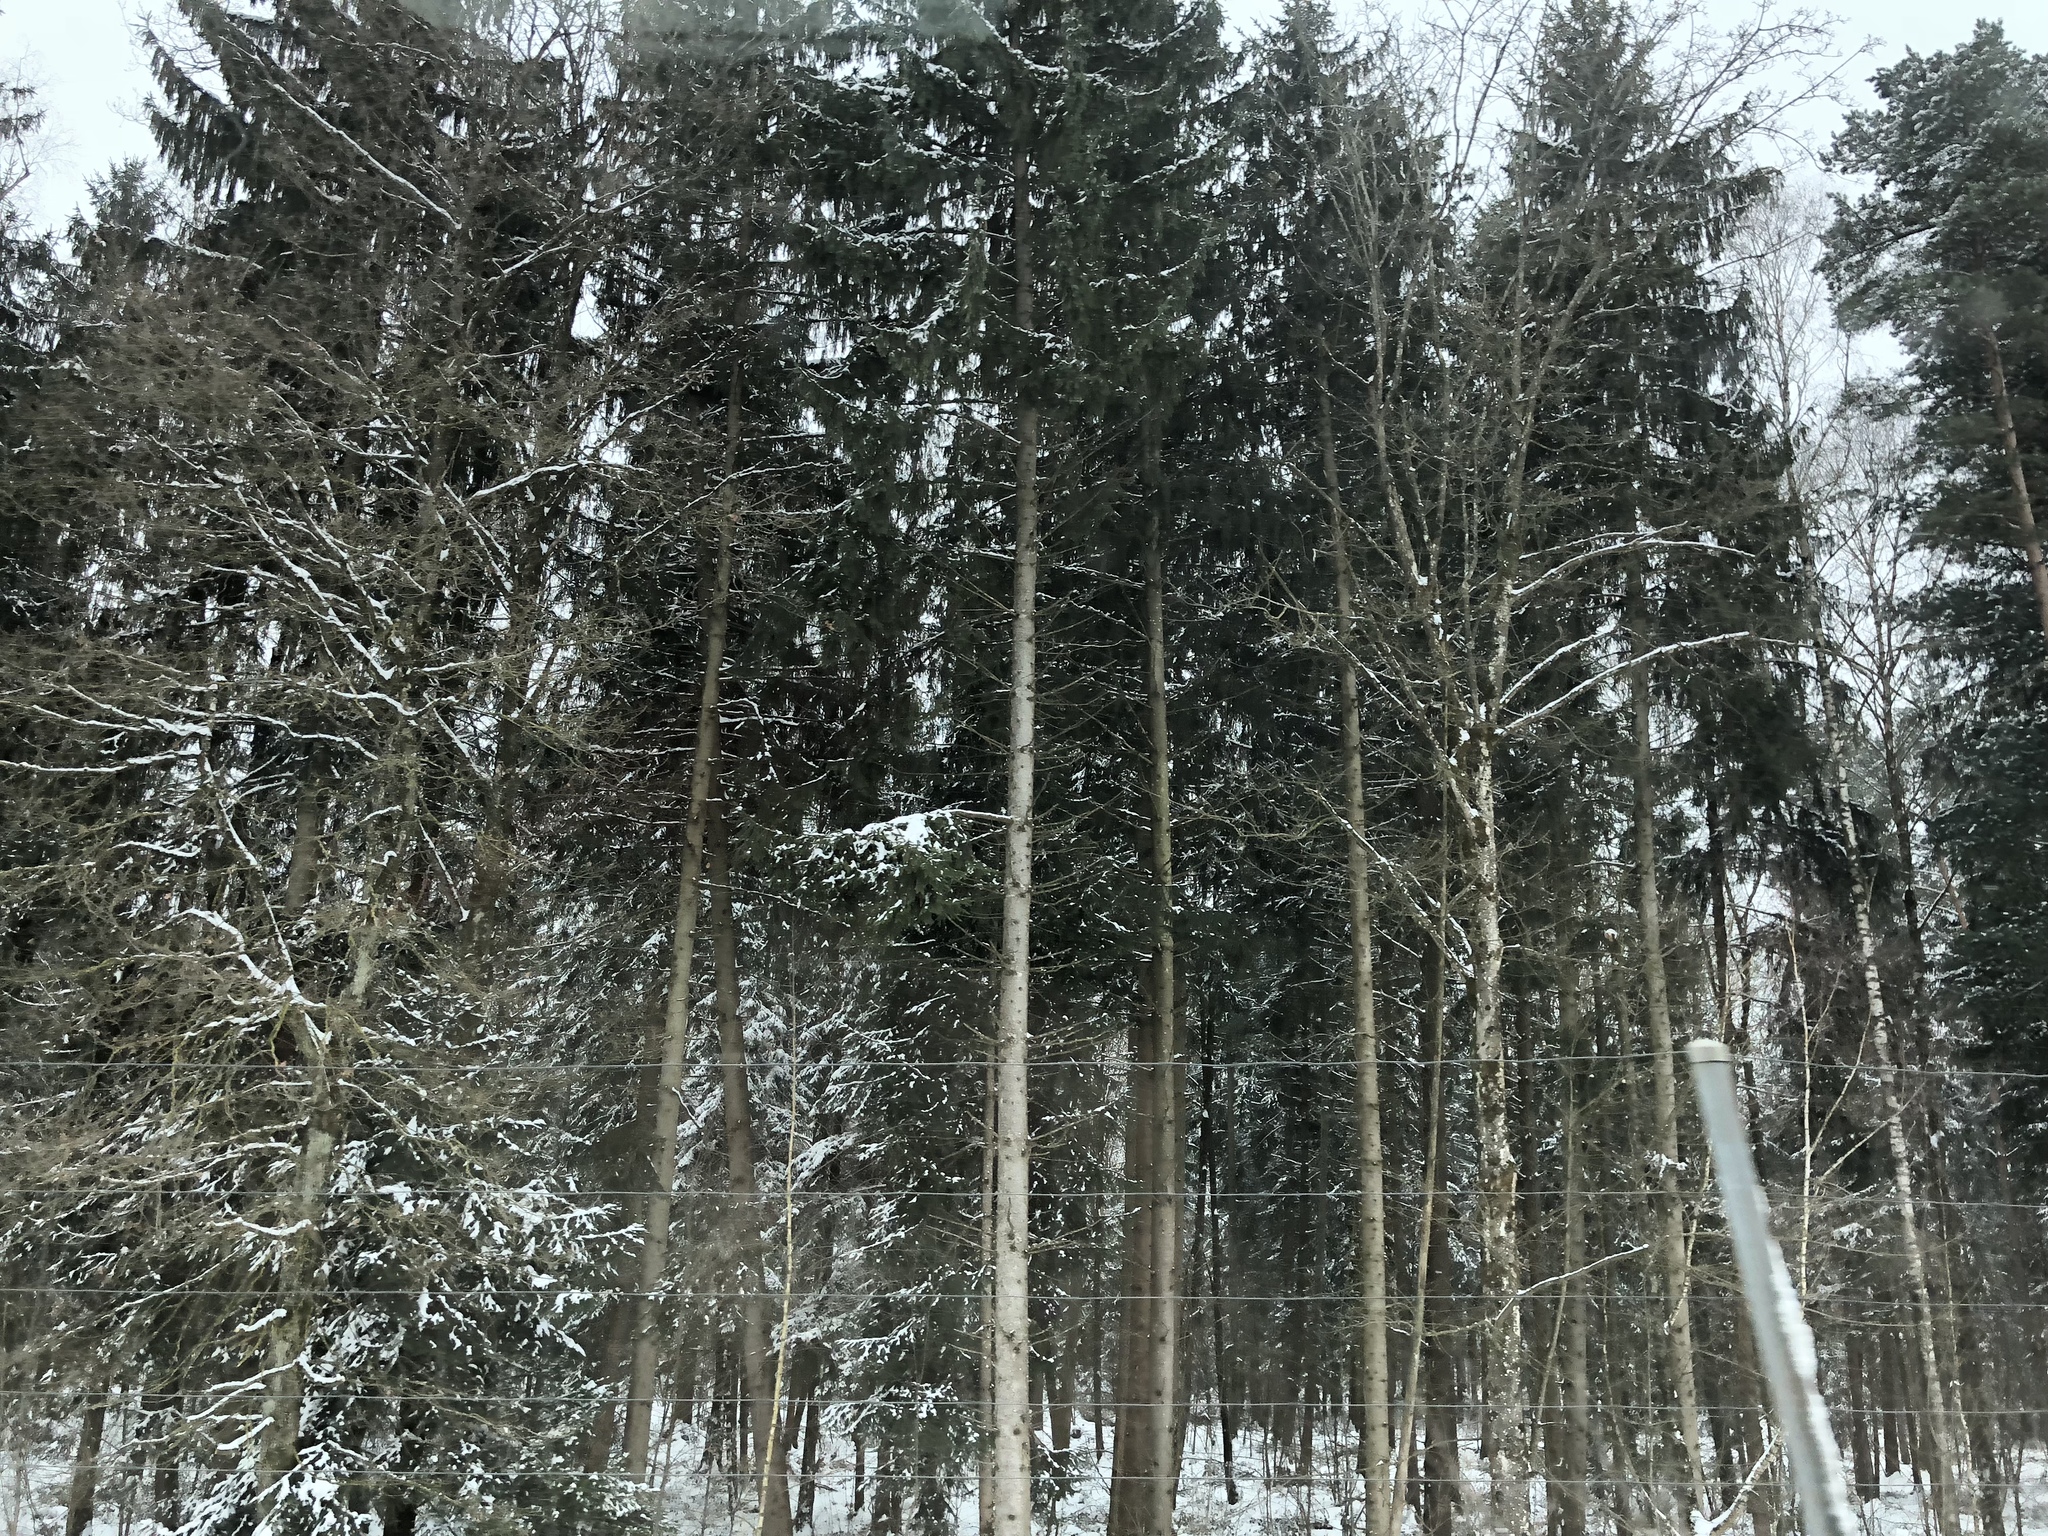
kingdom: Plantae
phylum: Tracheophyta
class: Pinopsida
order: Pinales
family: Pinaceae
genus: Picea
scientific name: Picea abies
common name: Norway spruce
